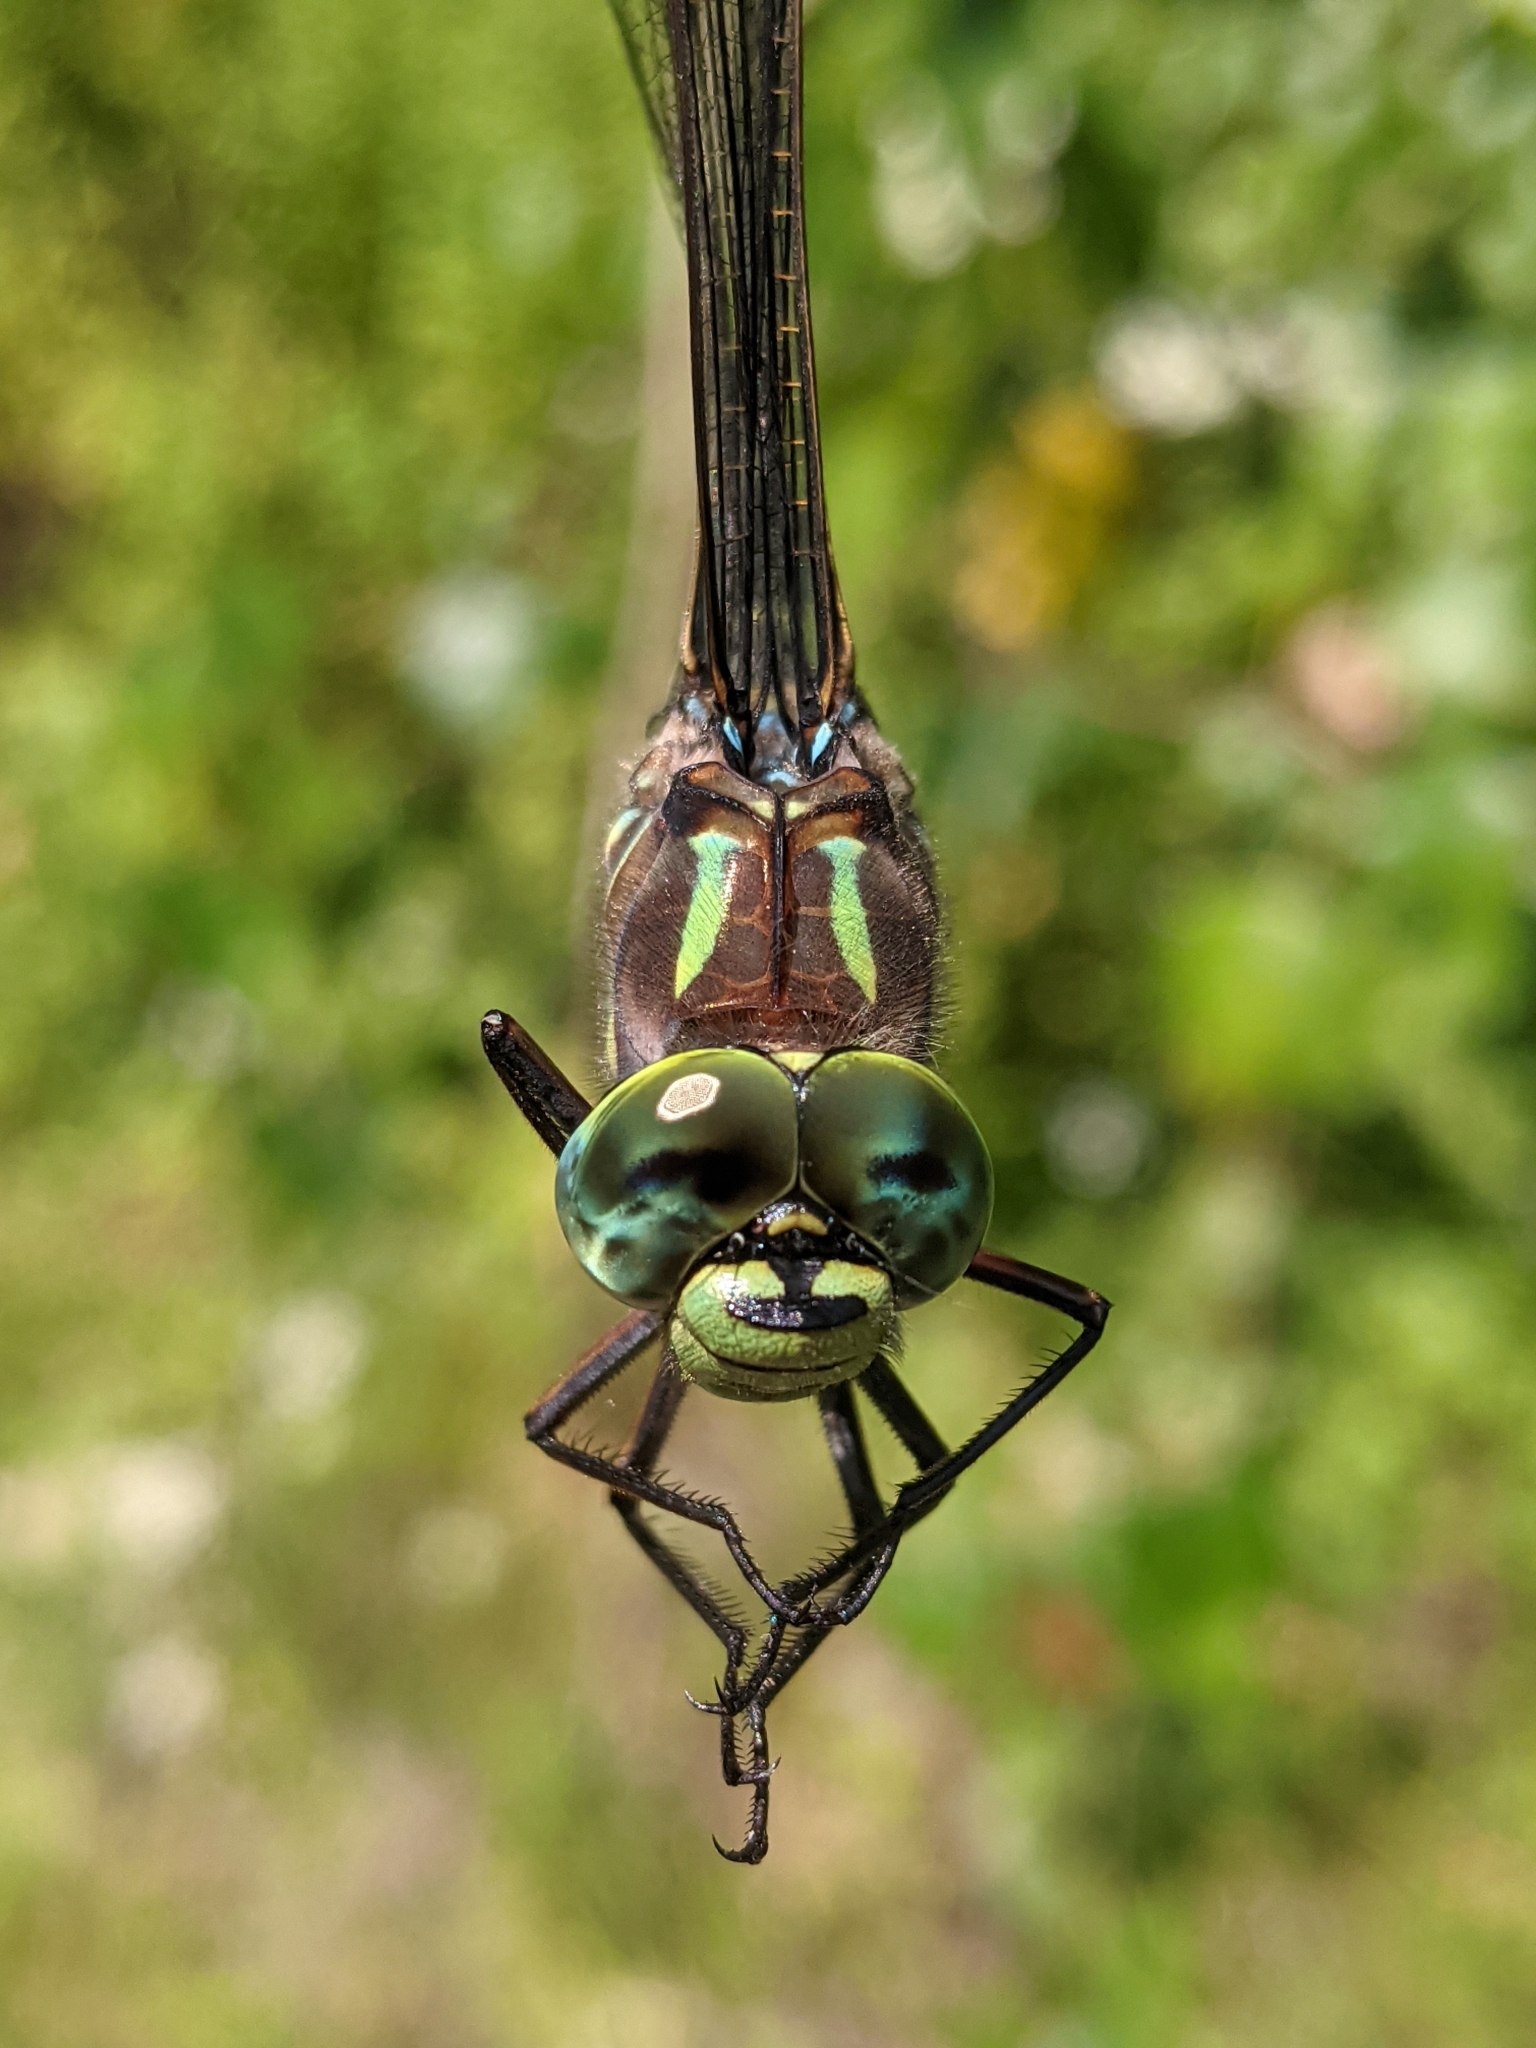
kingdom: Animalia
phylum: Arthropoda
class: Insecta
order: Odonata
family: Aeshnidae
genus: Aeshna
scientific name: Aeshna eremita
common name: Lake darner
